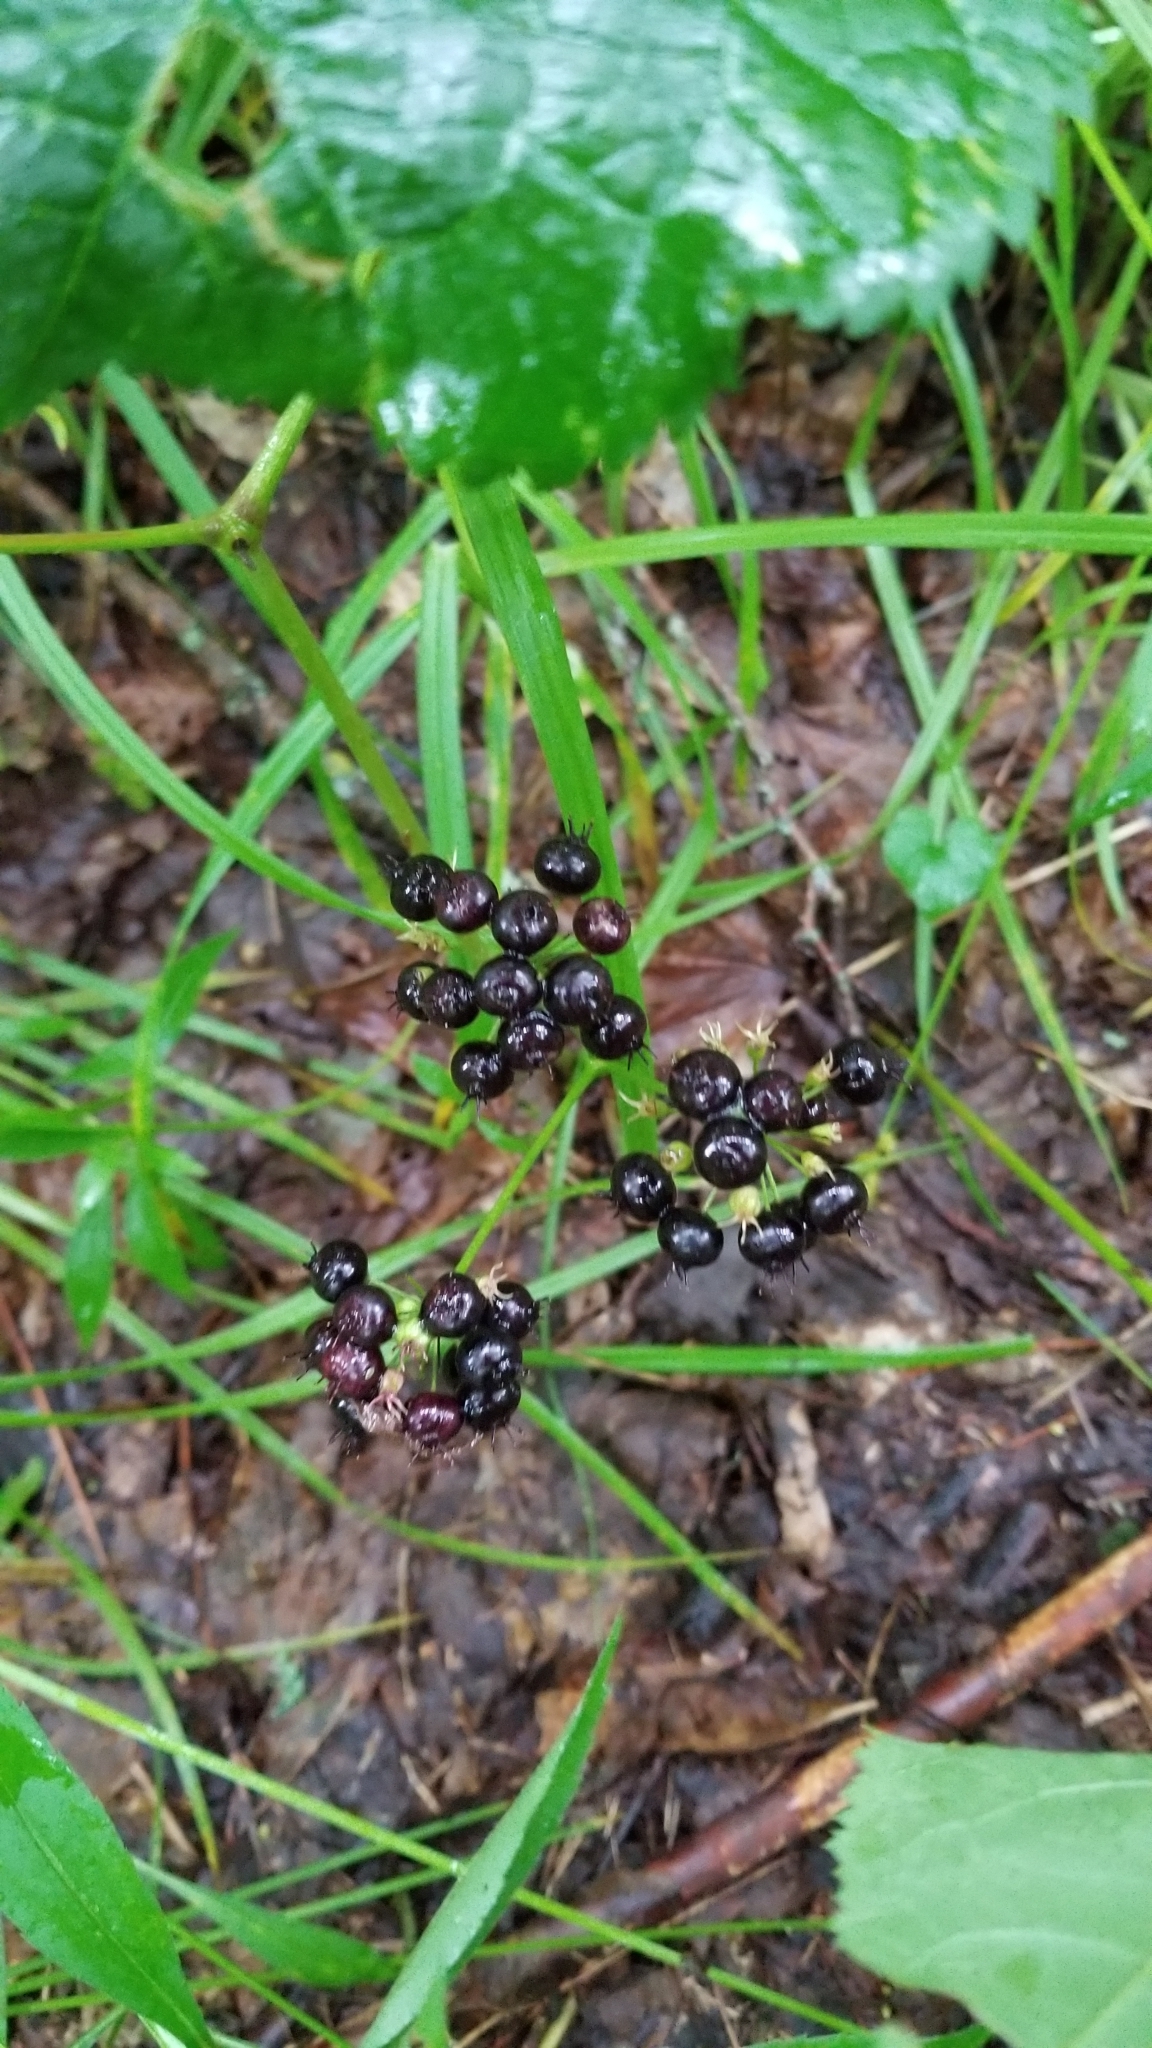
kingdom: Plantae
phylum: Tracheophyta
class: Magnoliopsida
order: Apiales
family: Araliaceae
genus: Aralia
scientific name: Aralia nudicaulis
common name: Wild sarsaparilla
